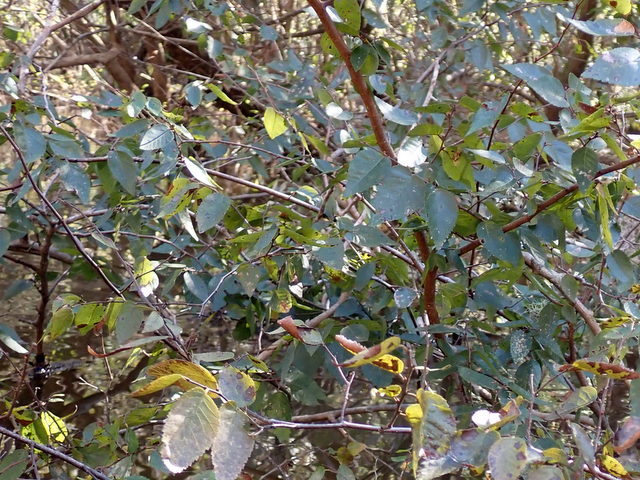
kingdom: Plantae
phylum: Tracheophyta
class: Magnoliopsida
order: Rosales
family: Ulmaceae
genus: Planera
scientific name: Planera aquatica
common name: Water-elm
